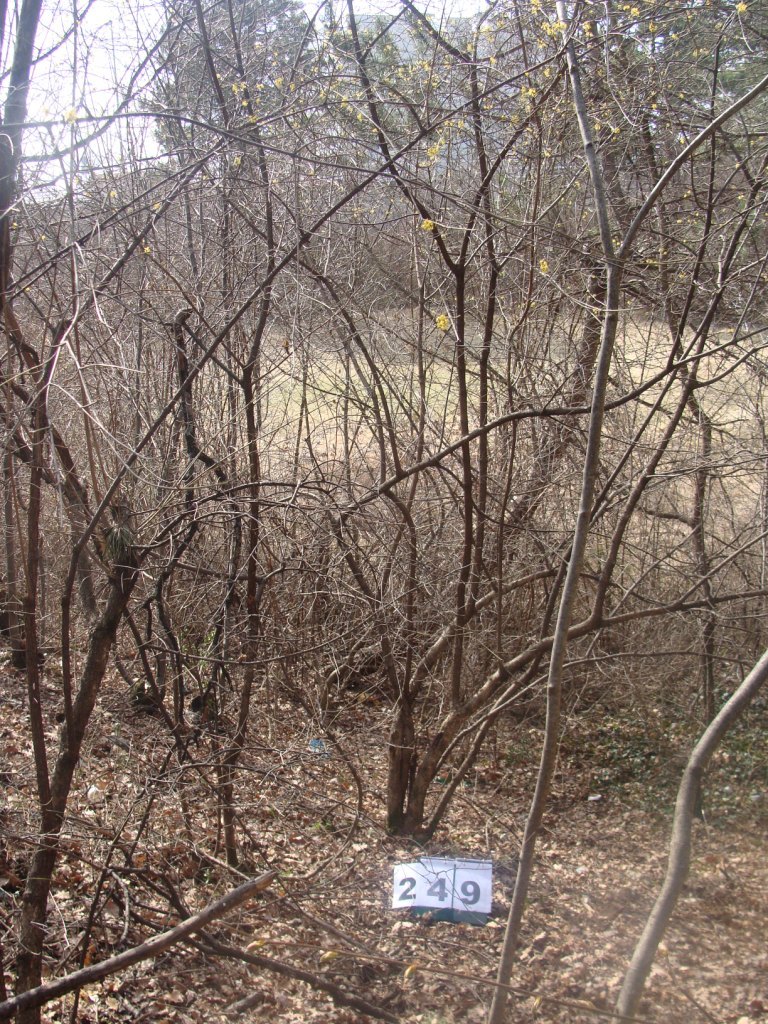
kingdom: Plantae
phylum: Tracheophyta
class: Magnoliopsida
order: Cornales
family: Cornaceae
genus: Cornus
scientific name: Cornus mas
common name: Cornelian-cherry
